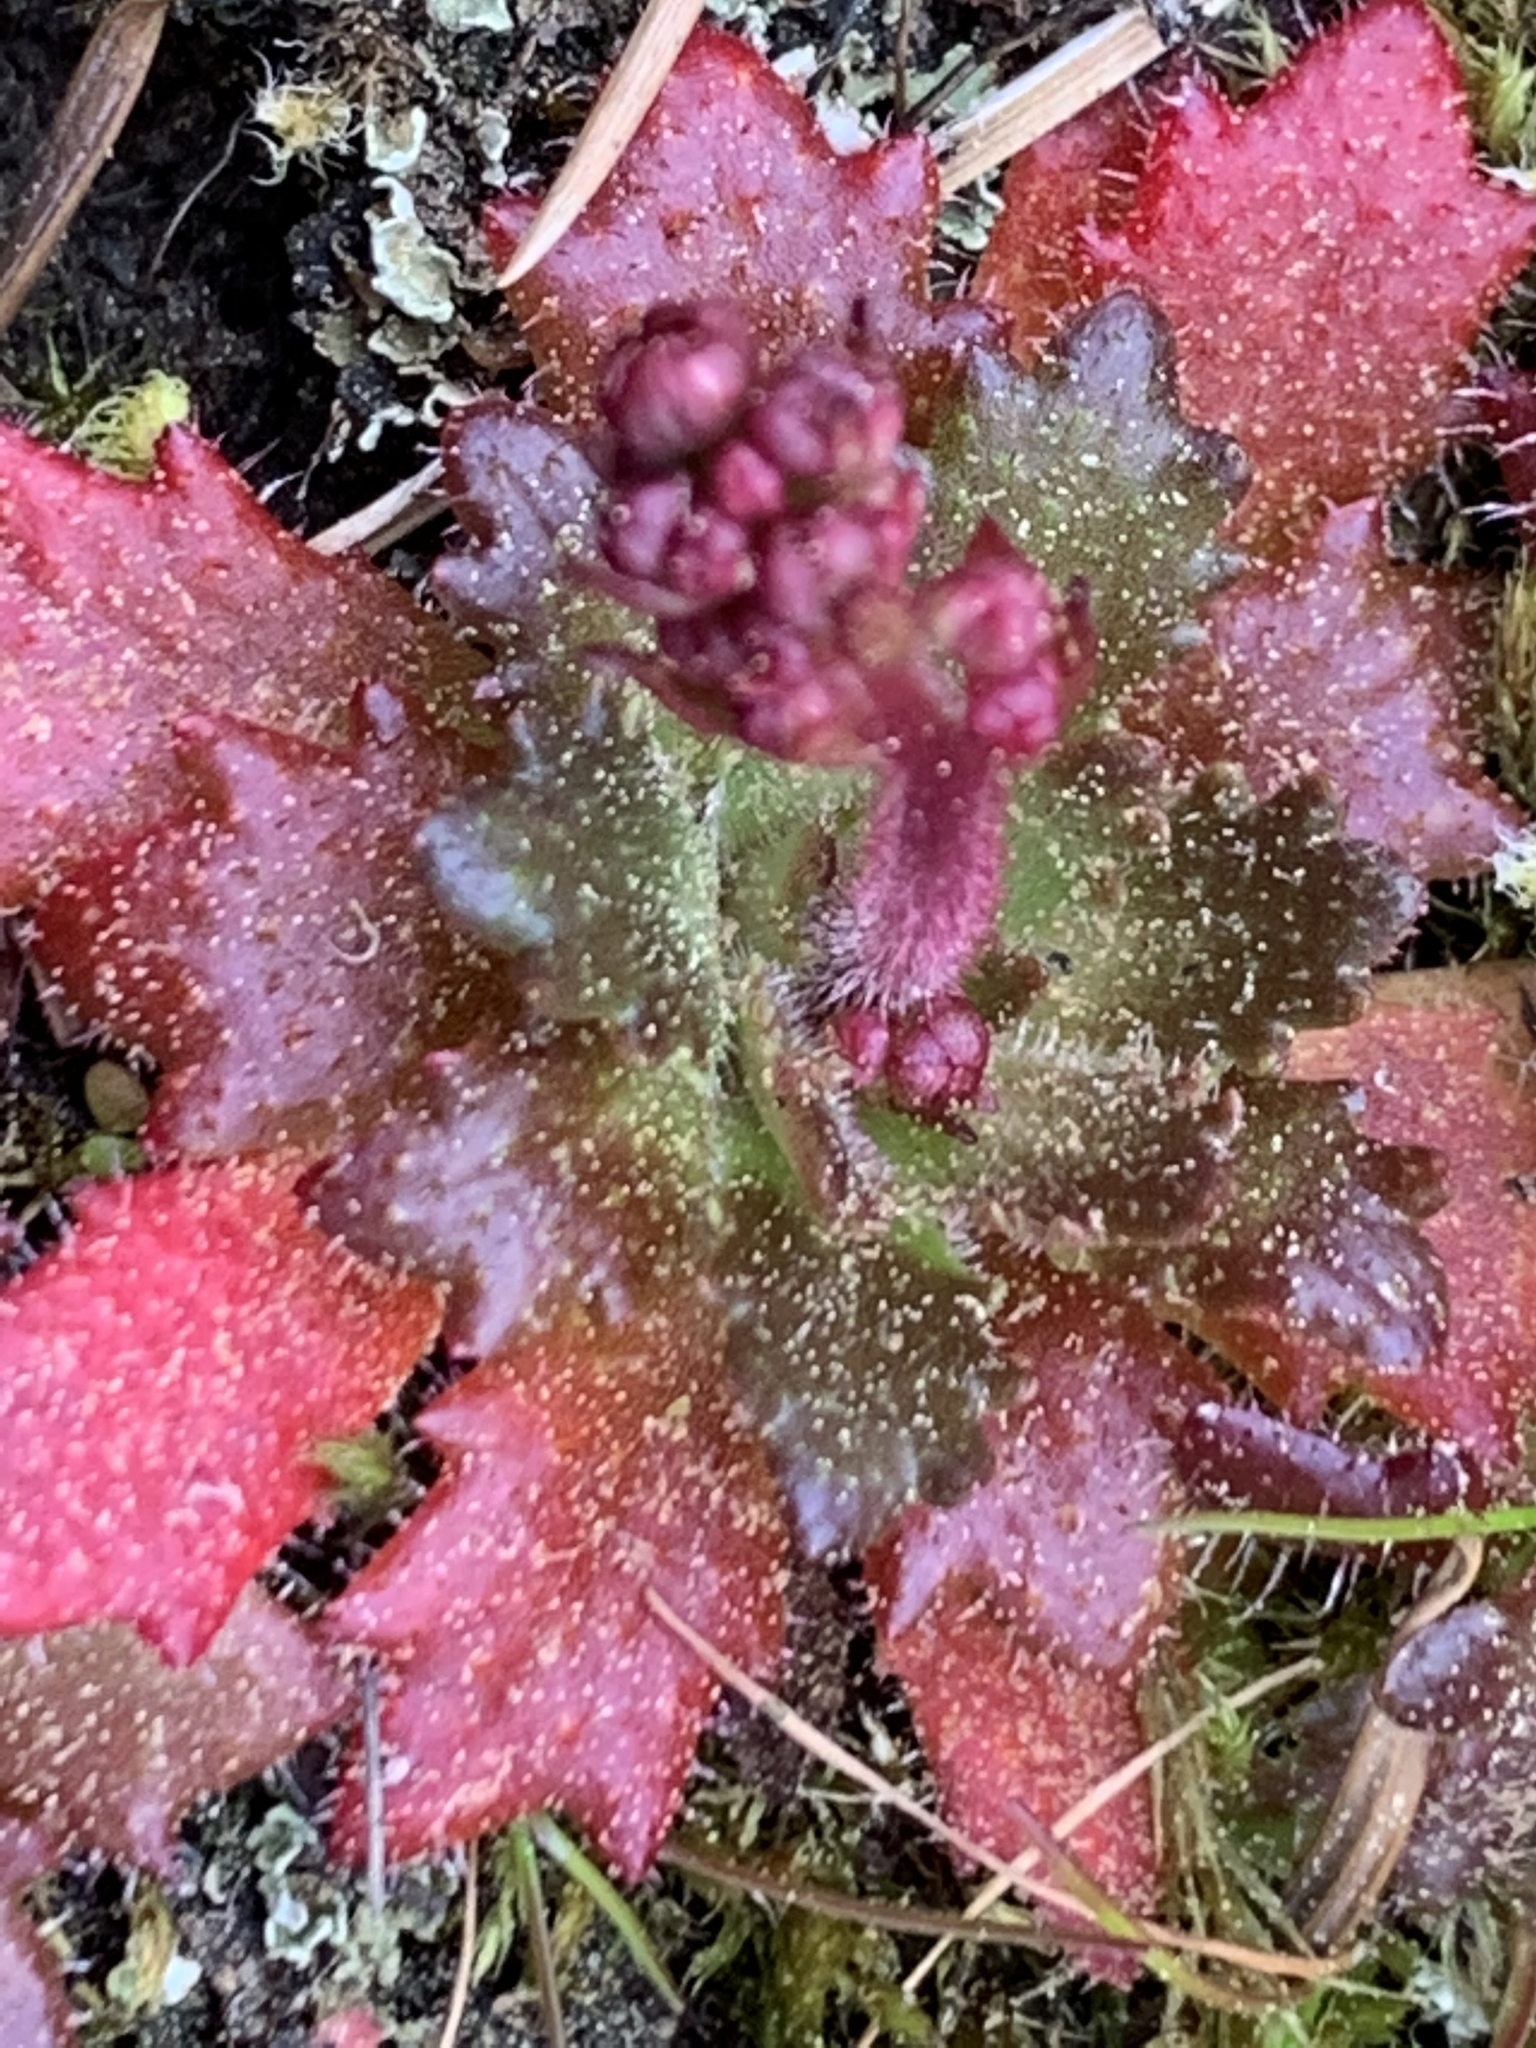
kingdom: Plantae
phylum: Tracheophyta
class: Magnoliopsida
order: Saxifragales
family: Saxifragaceae
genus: Micranthes
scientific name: Micranthes ferruginea
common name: Rusty saxifrage
